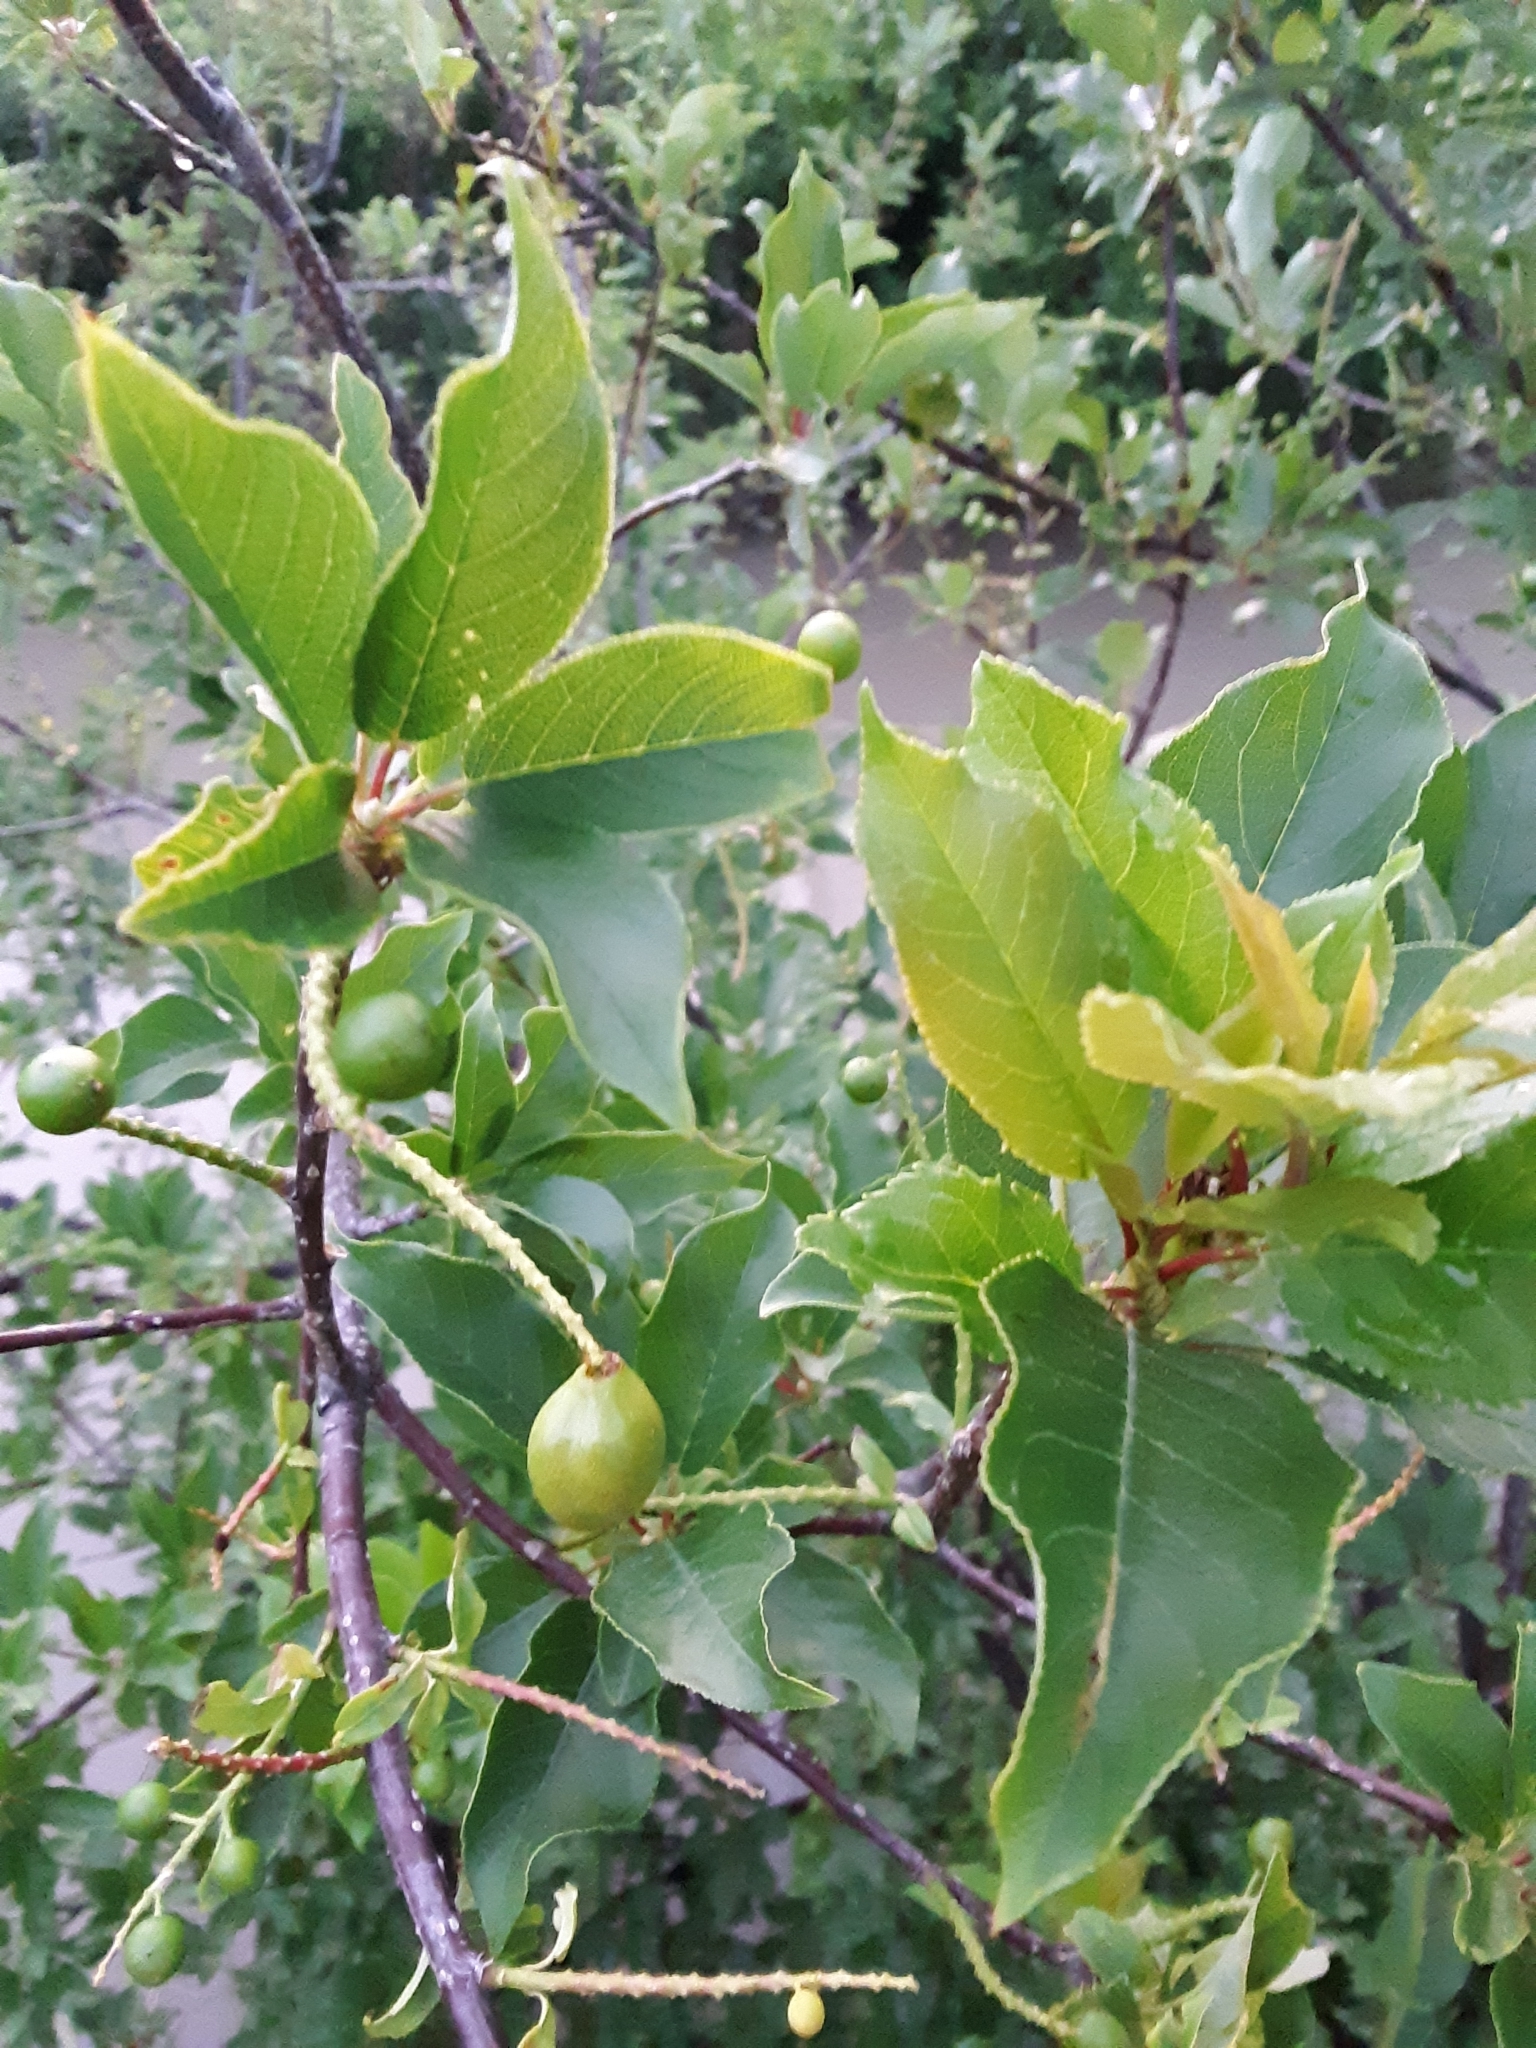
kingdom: Plantae
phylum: Tracheophyta
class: Magnoliopsida
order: Rosales
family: Rosaceae
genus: Prunus
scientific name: Prunus virginiana
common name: Chokecherry
